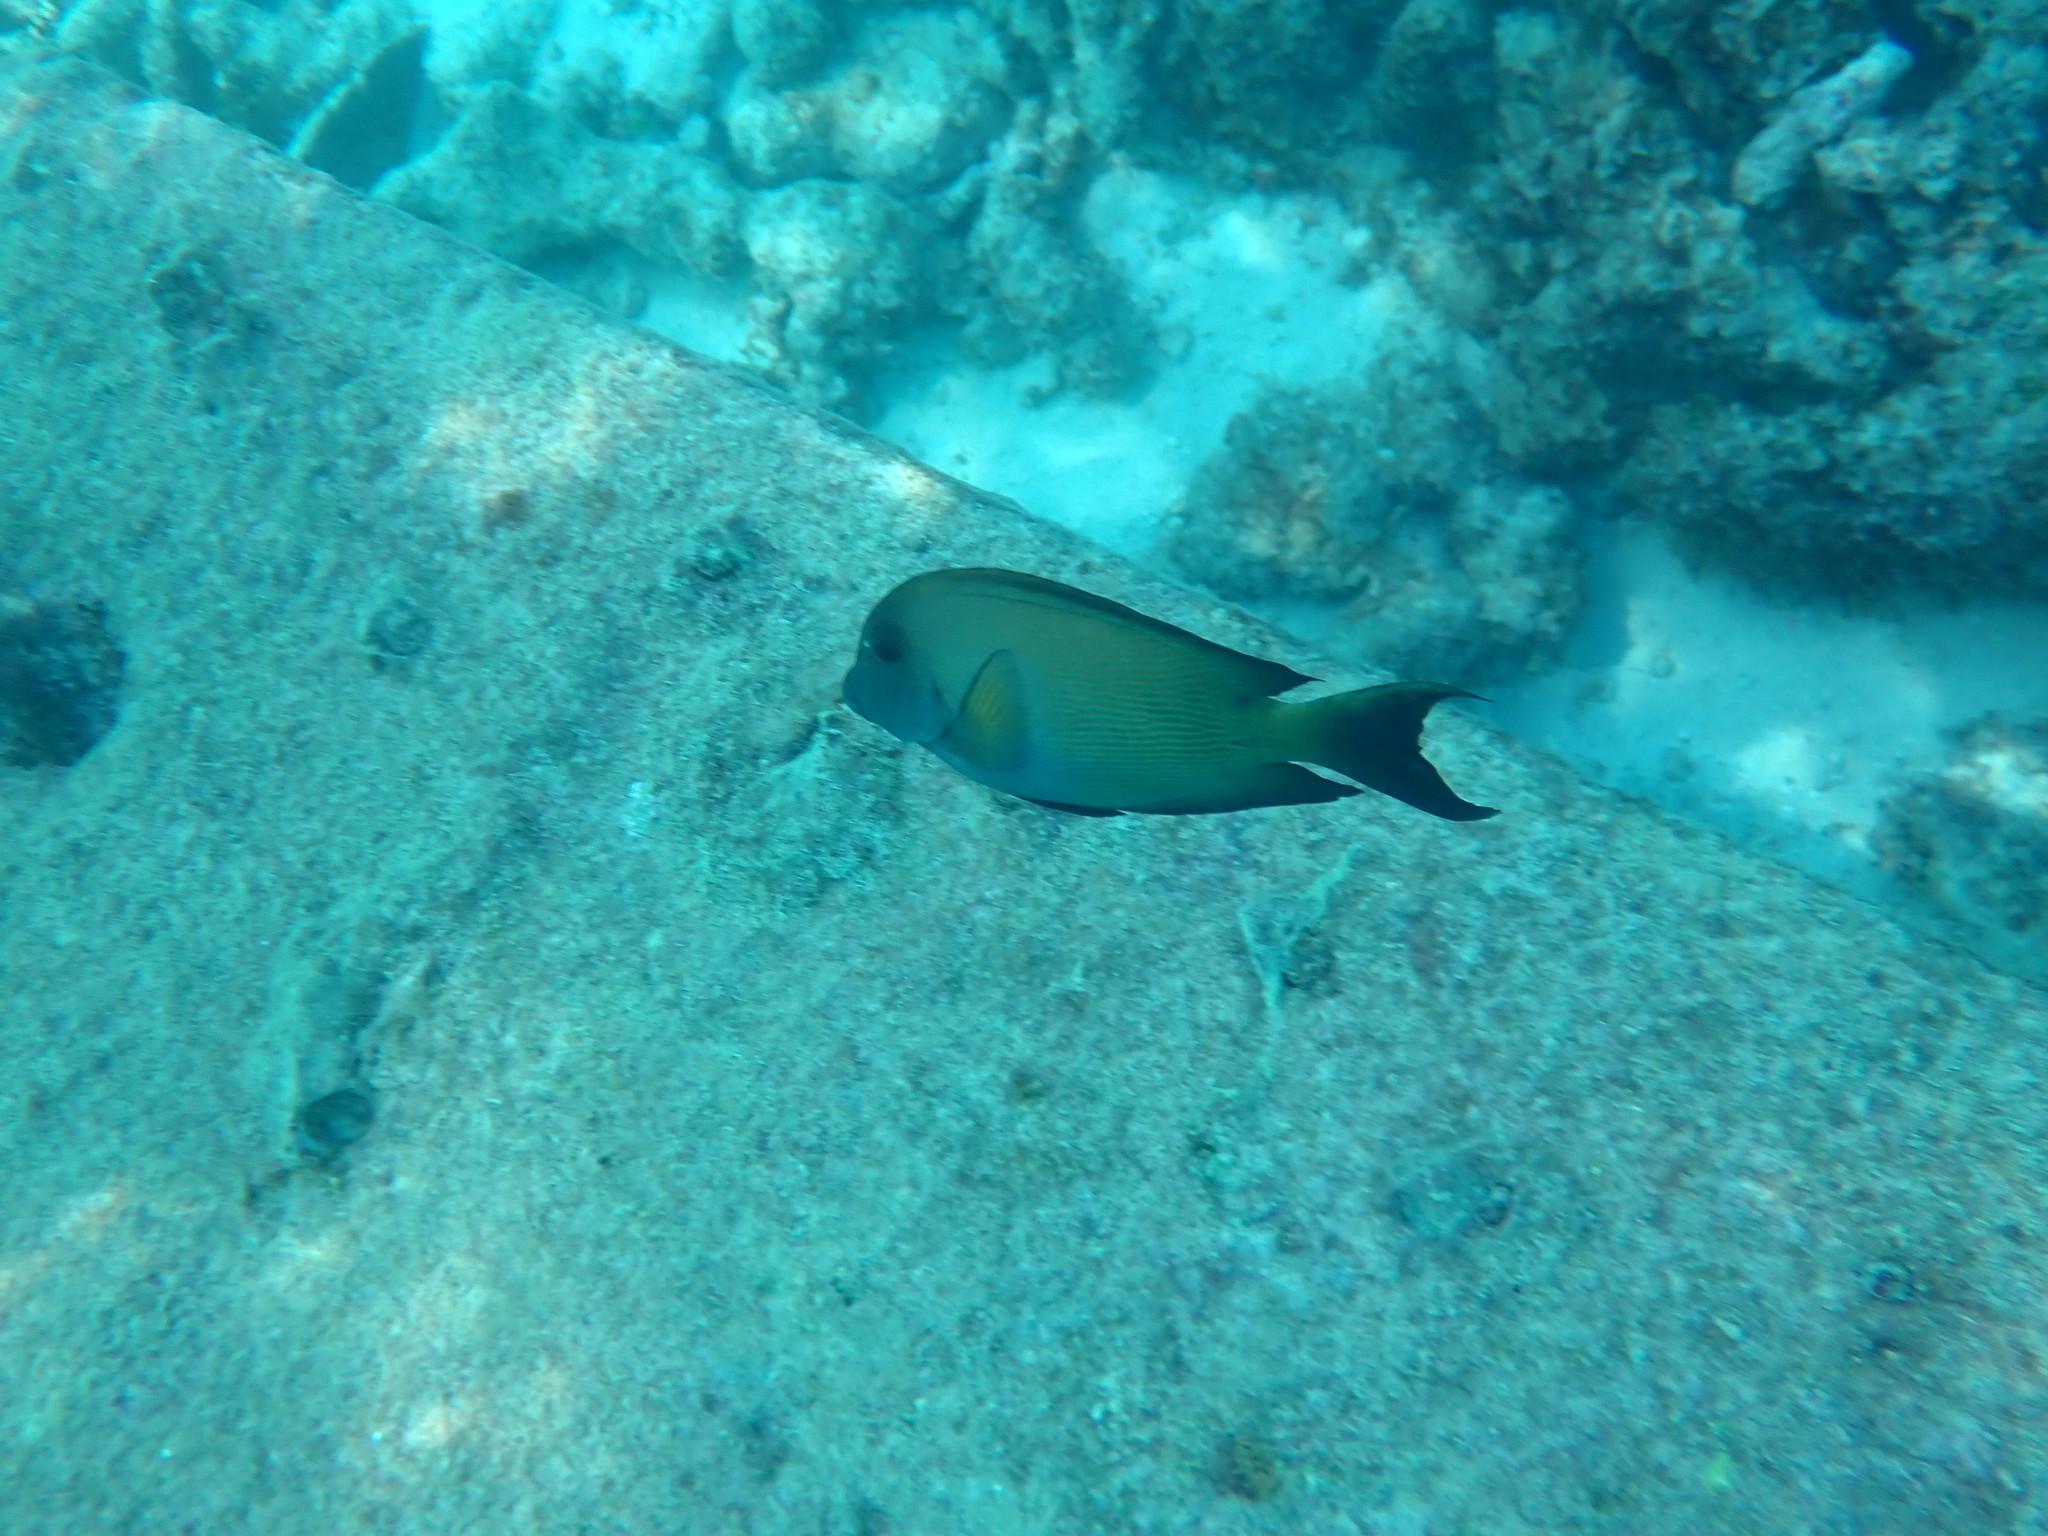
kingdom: Animalia
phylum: Chordata
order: Perciformes
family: Acanthuridae
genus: Ctenochaetus
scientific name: Ctenochaetus striatus
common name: Bristle-toothed surgeonfish
